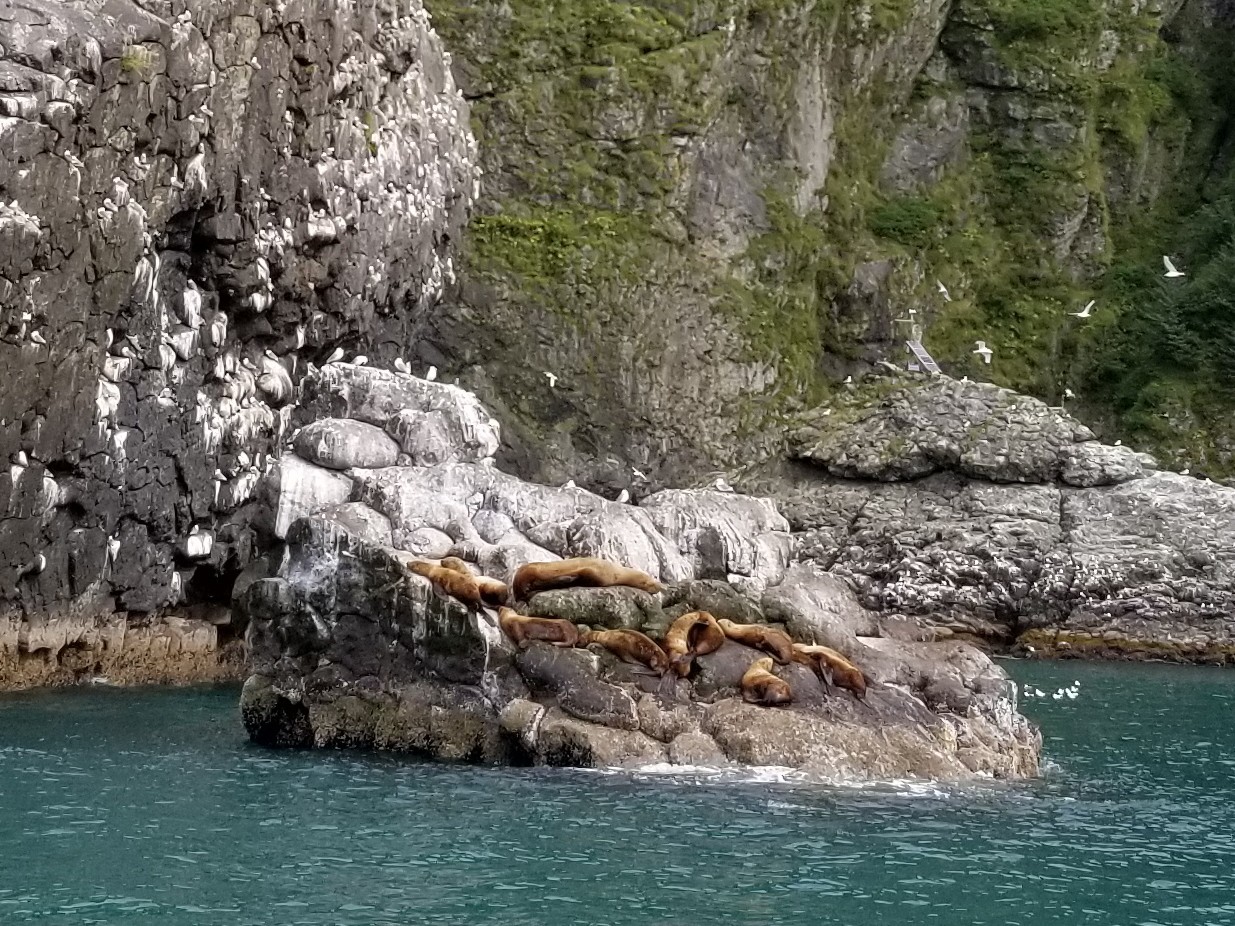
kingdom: Animalia
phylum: Chordata
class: Mammalia
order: Carnivora
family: Otariidae
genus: Eumetopias
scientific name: Eumetopias jubatus
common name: Steller sea lion
